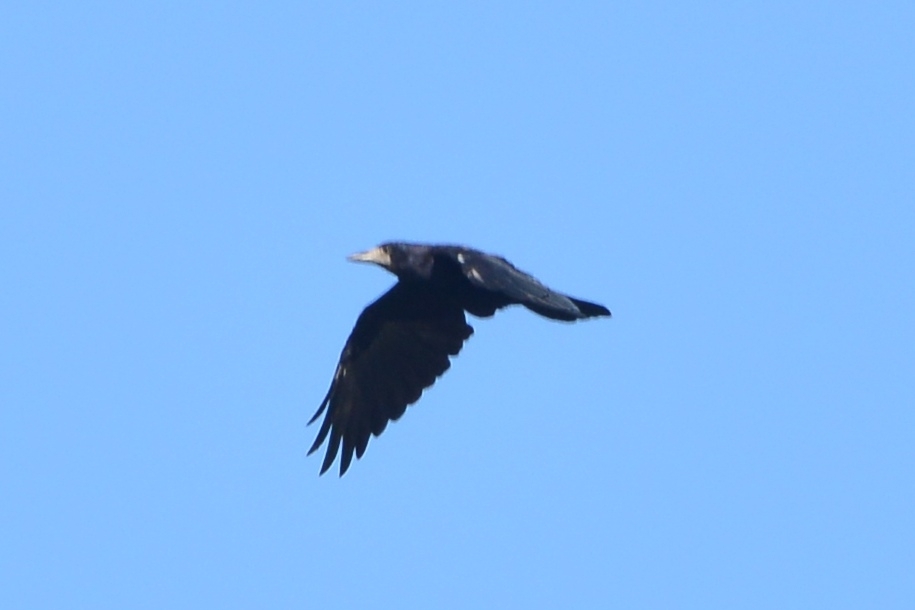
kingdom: Animalia
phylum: Chordata
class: Aves
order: Passeriformes
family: Corvidae
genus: Corvus
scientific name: Corvus frugilegus
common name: Rook
